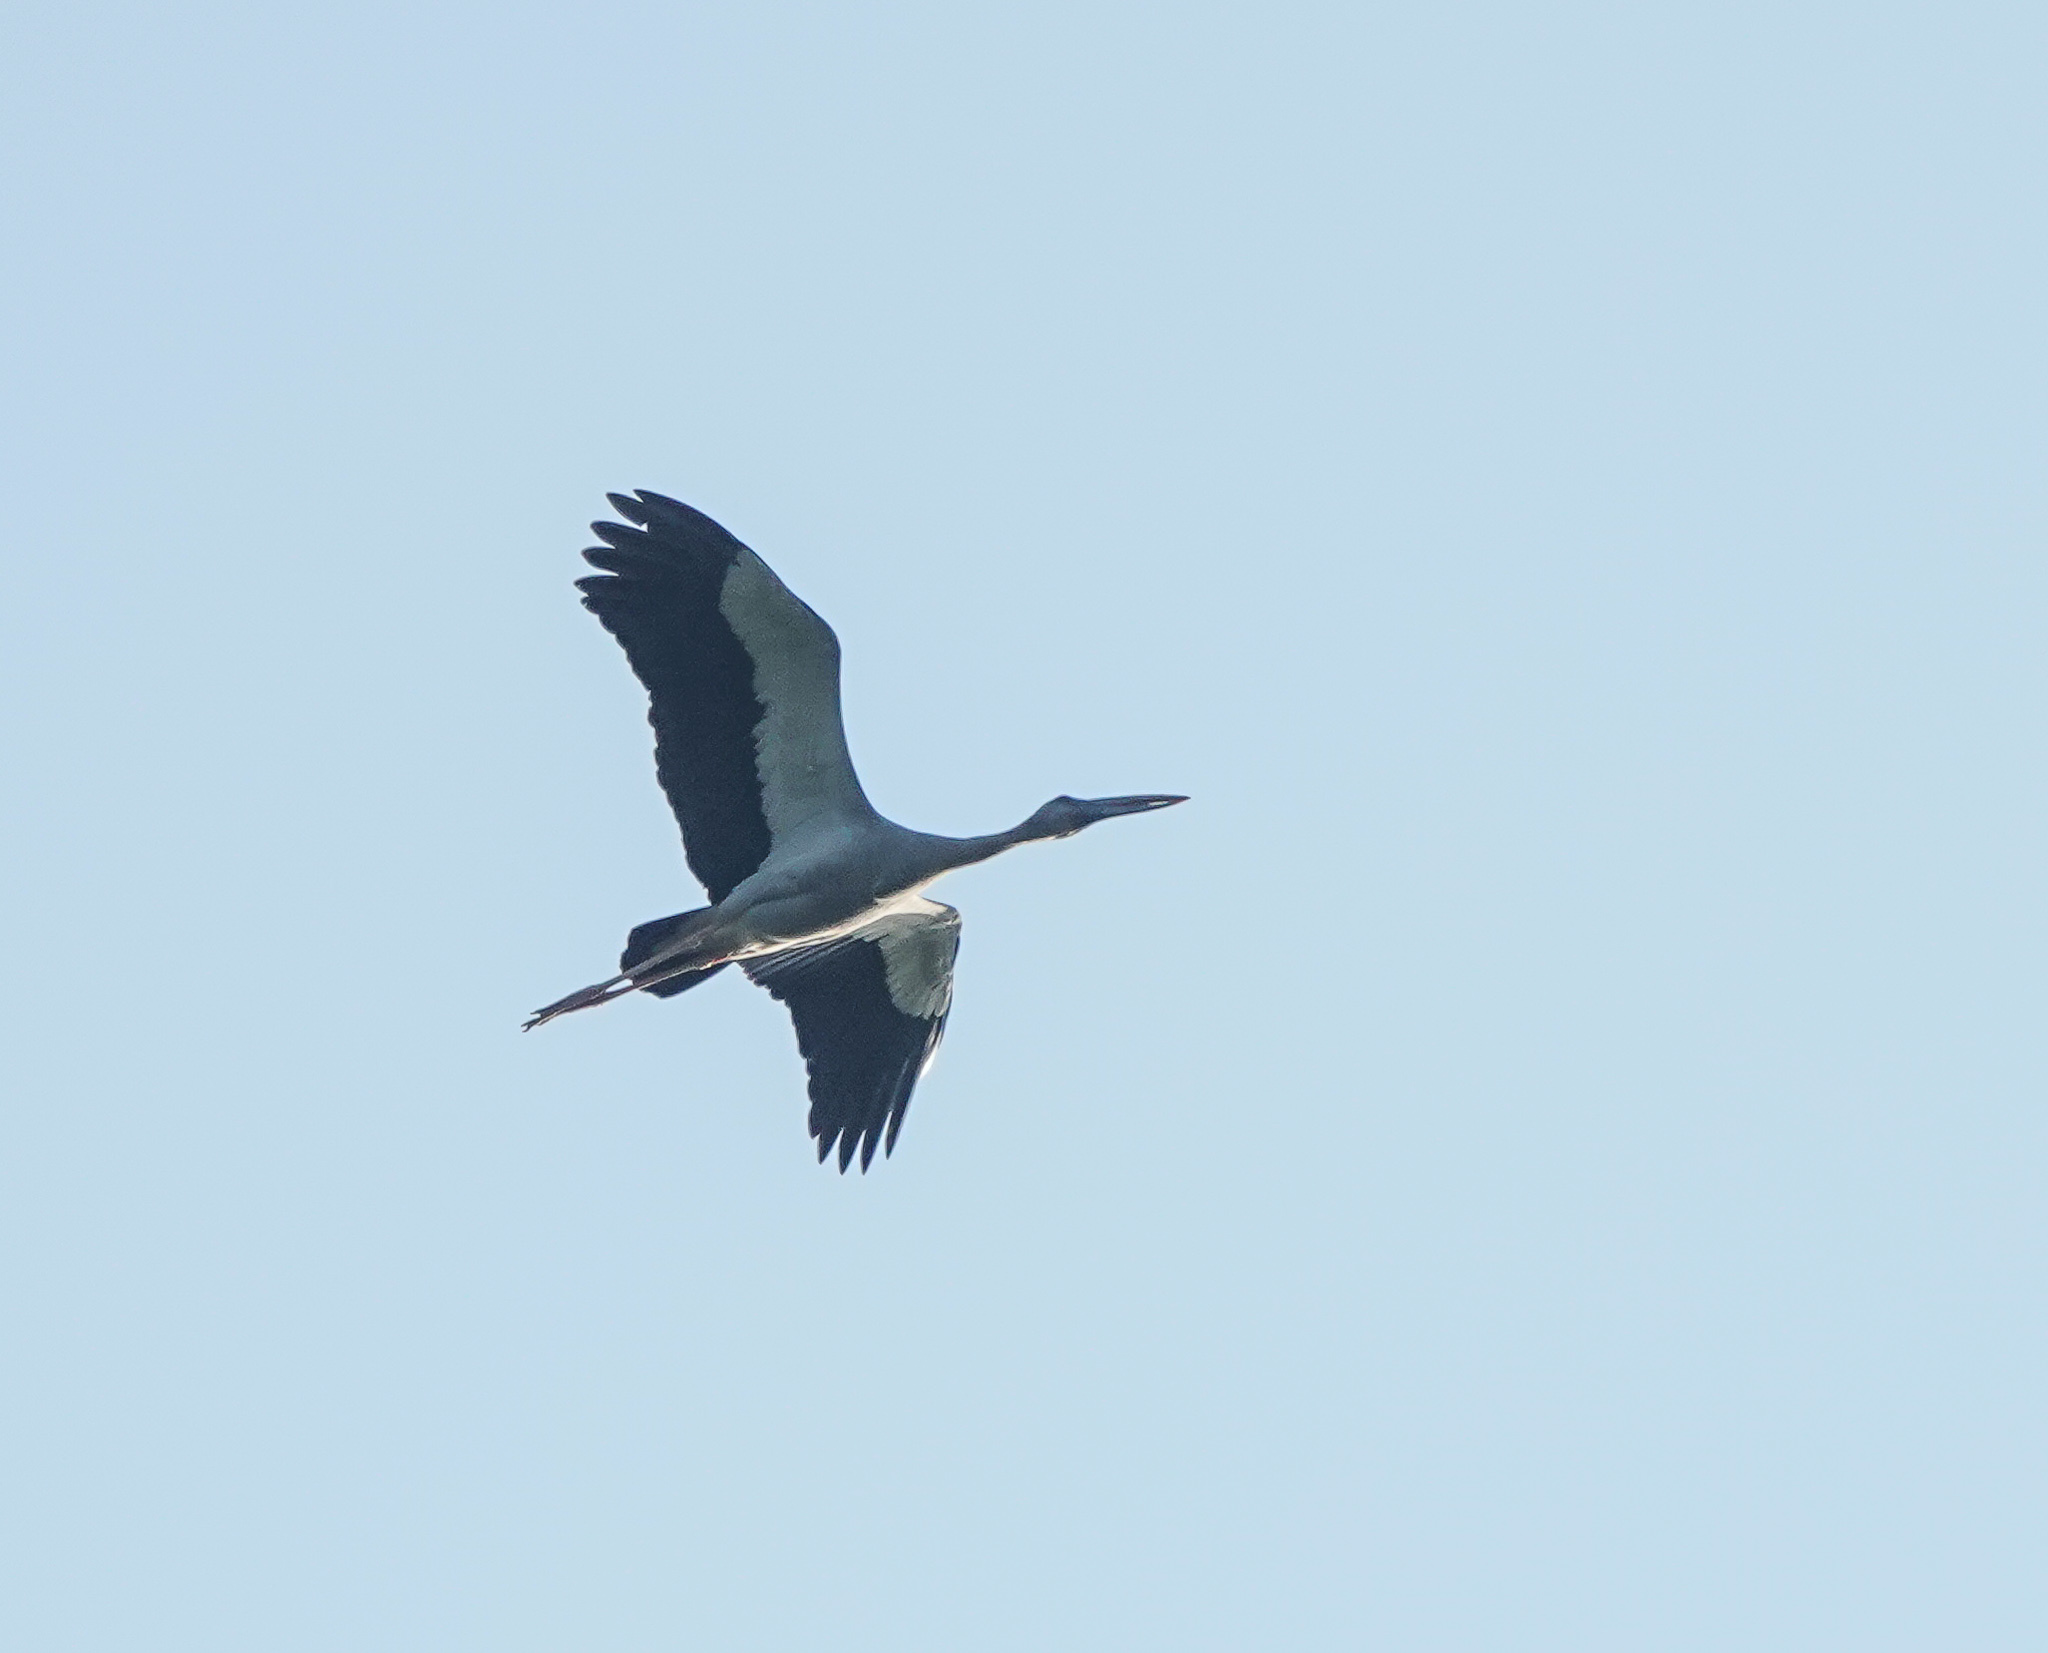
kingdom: Animalia
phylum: Chordata
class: Aves
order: Ciconiiformes
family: Ciconiidae
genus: Anastomus
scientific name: Anastomus oscitans
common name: Asian openbill
